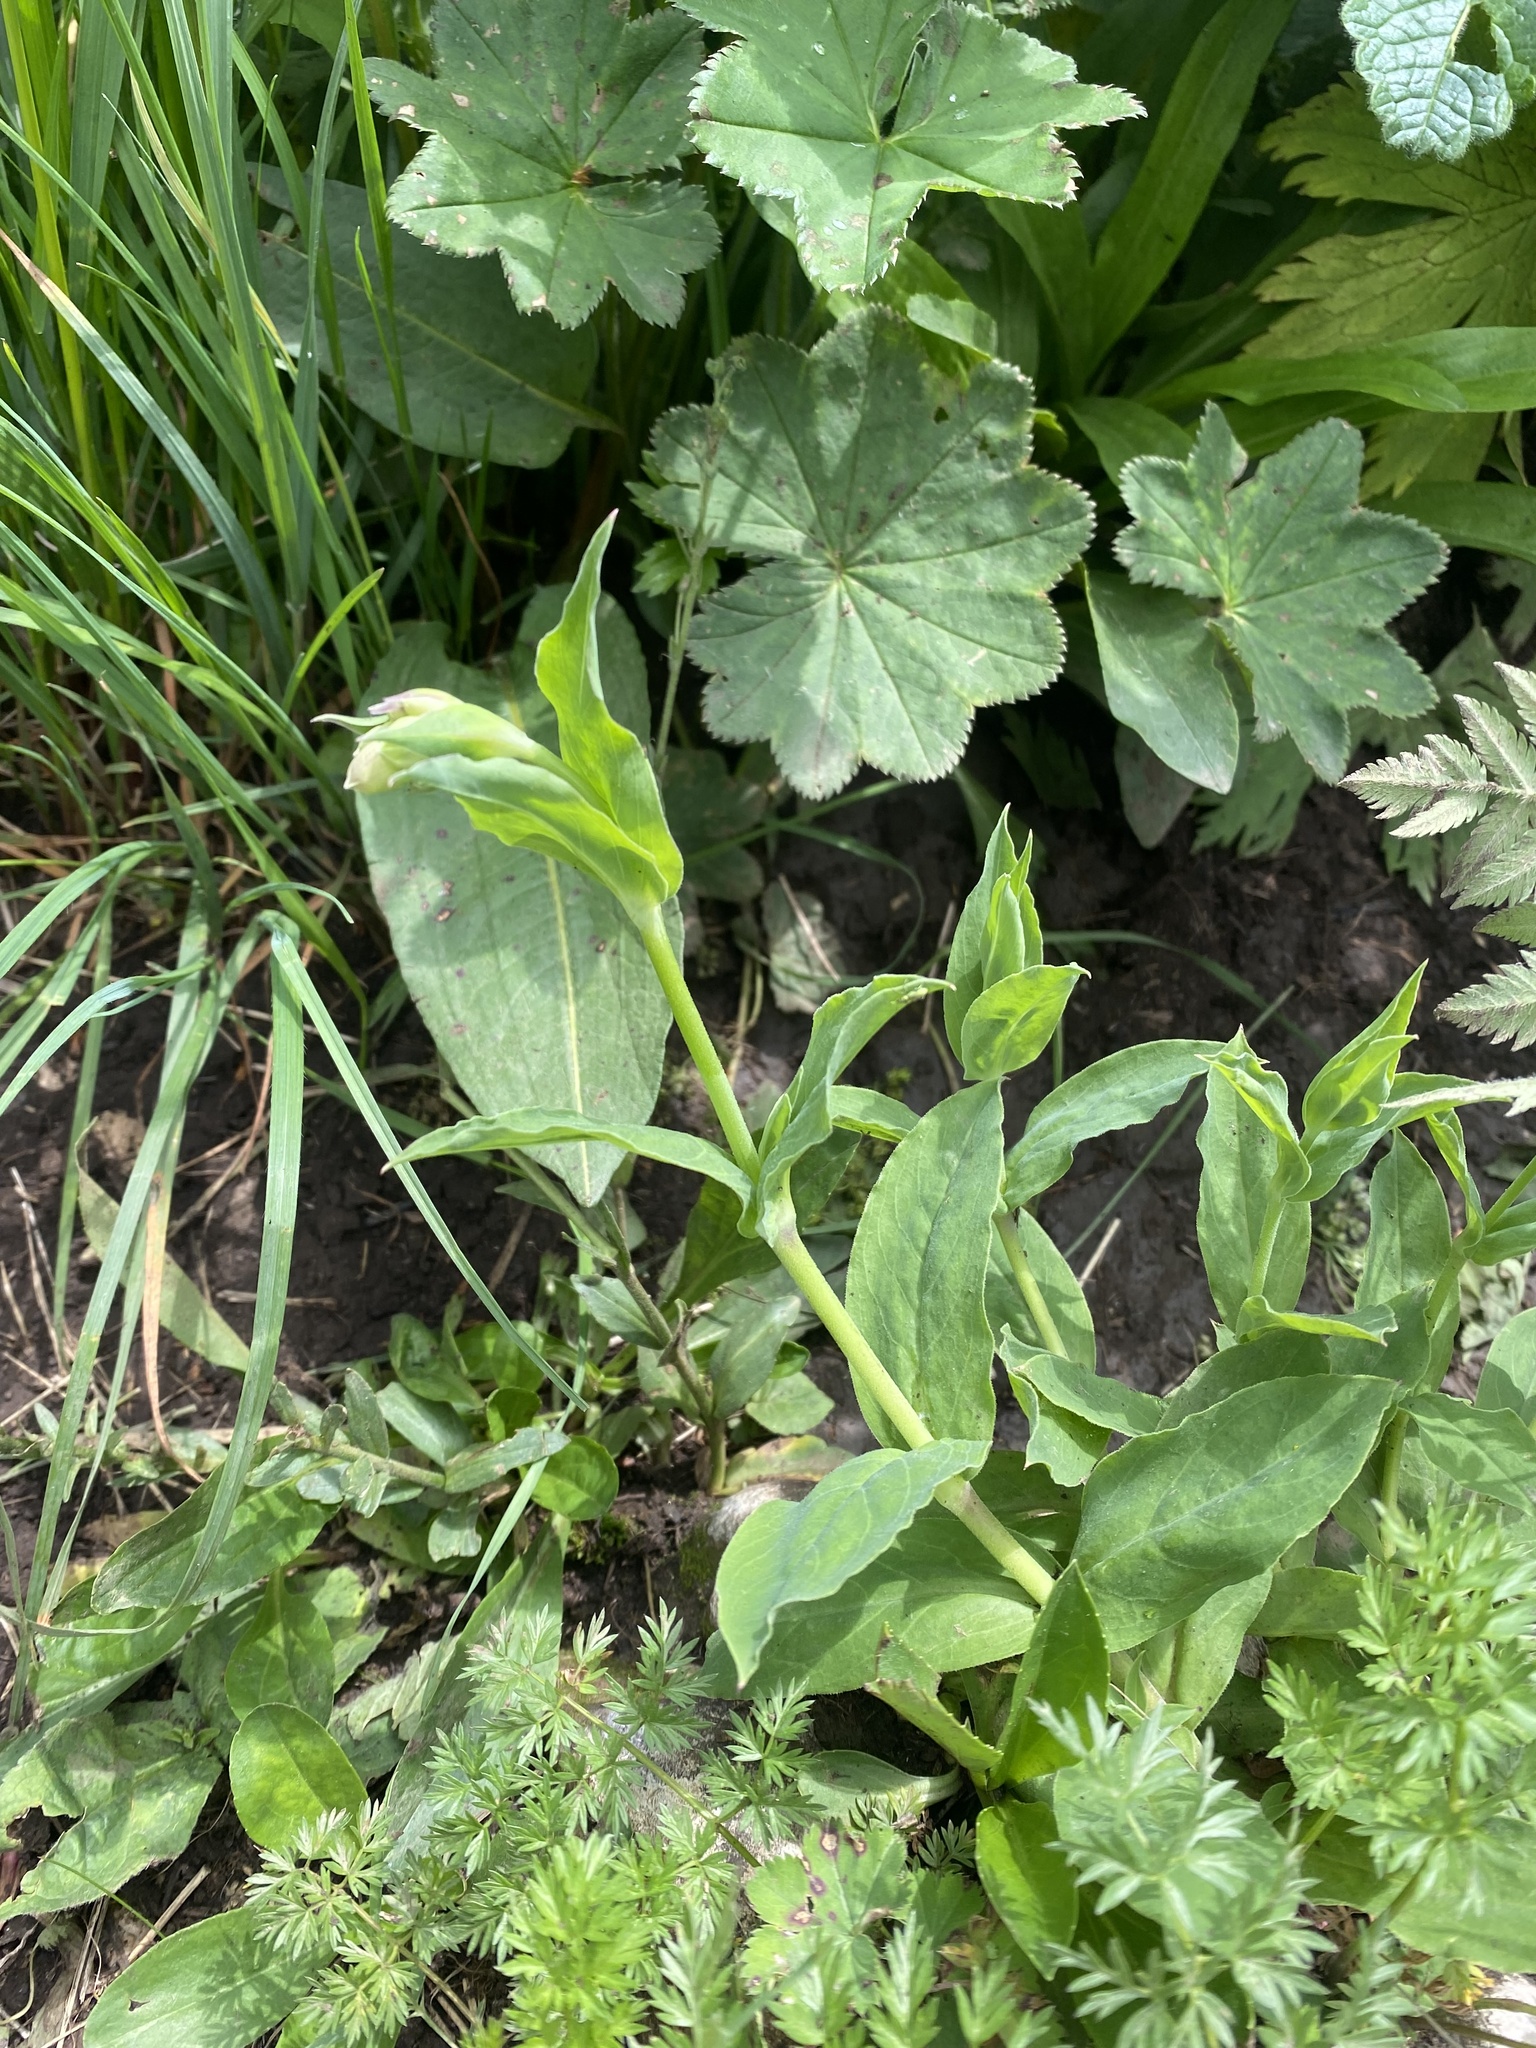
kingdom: Plantae
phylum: Tracheophyta
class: Magnoliopsida
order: Caryophyllales
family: Caryophyllaceae
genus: Silene
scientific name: Silene vulgaris
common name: Bladder campion
